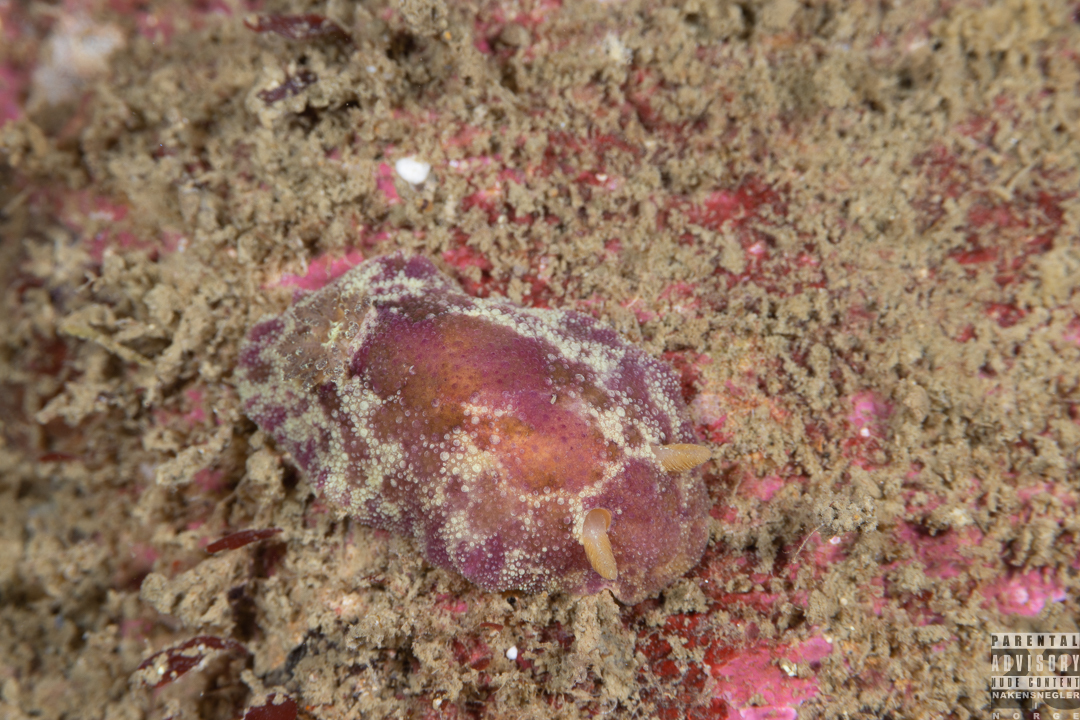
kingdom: Animalia
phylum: Mollusca
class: Gastropoda
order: Nudibranchia
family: Dorididae
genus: Doris
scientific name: Doris pseudoargus
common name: Sea lemon
